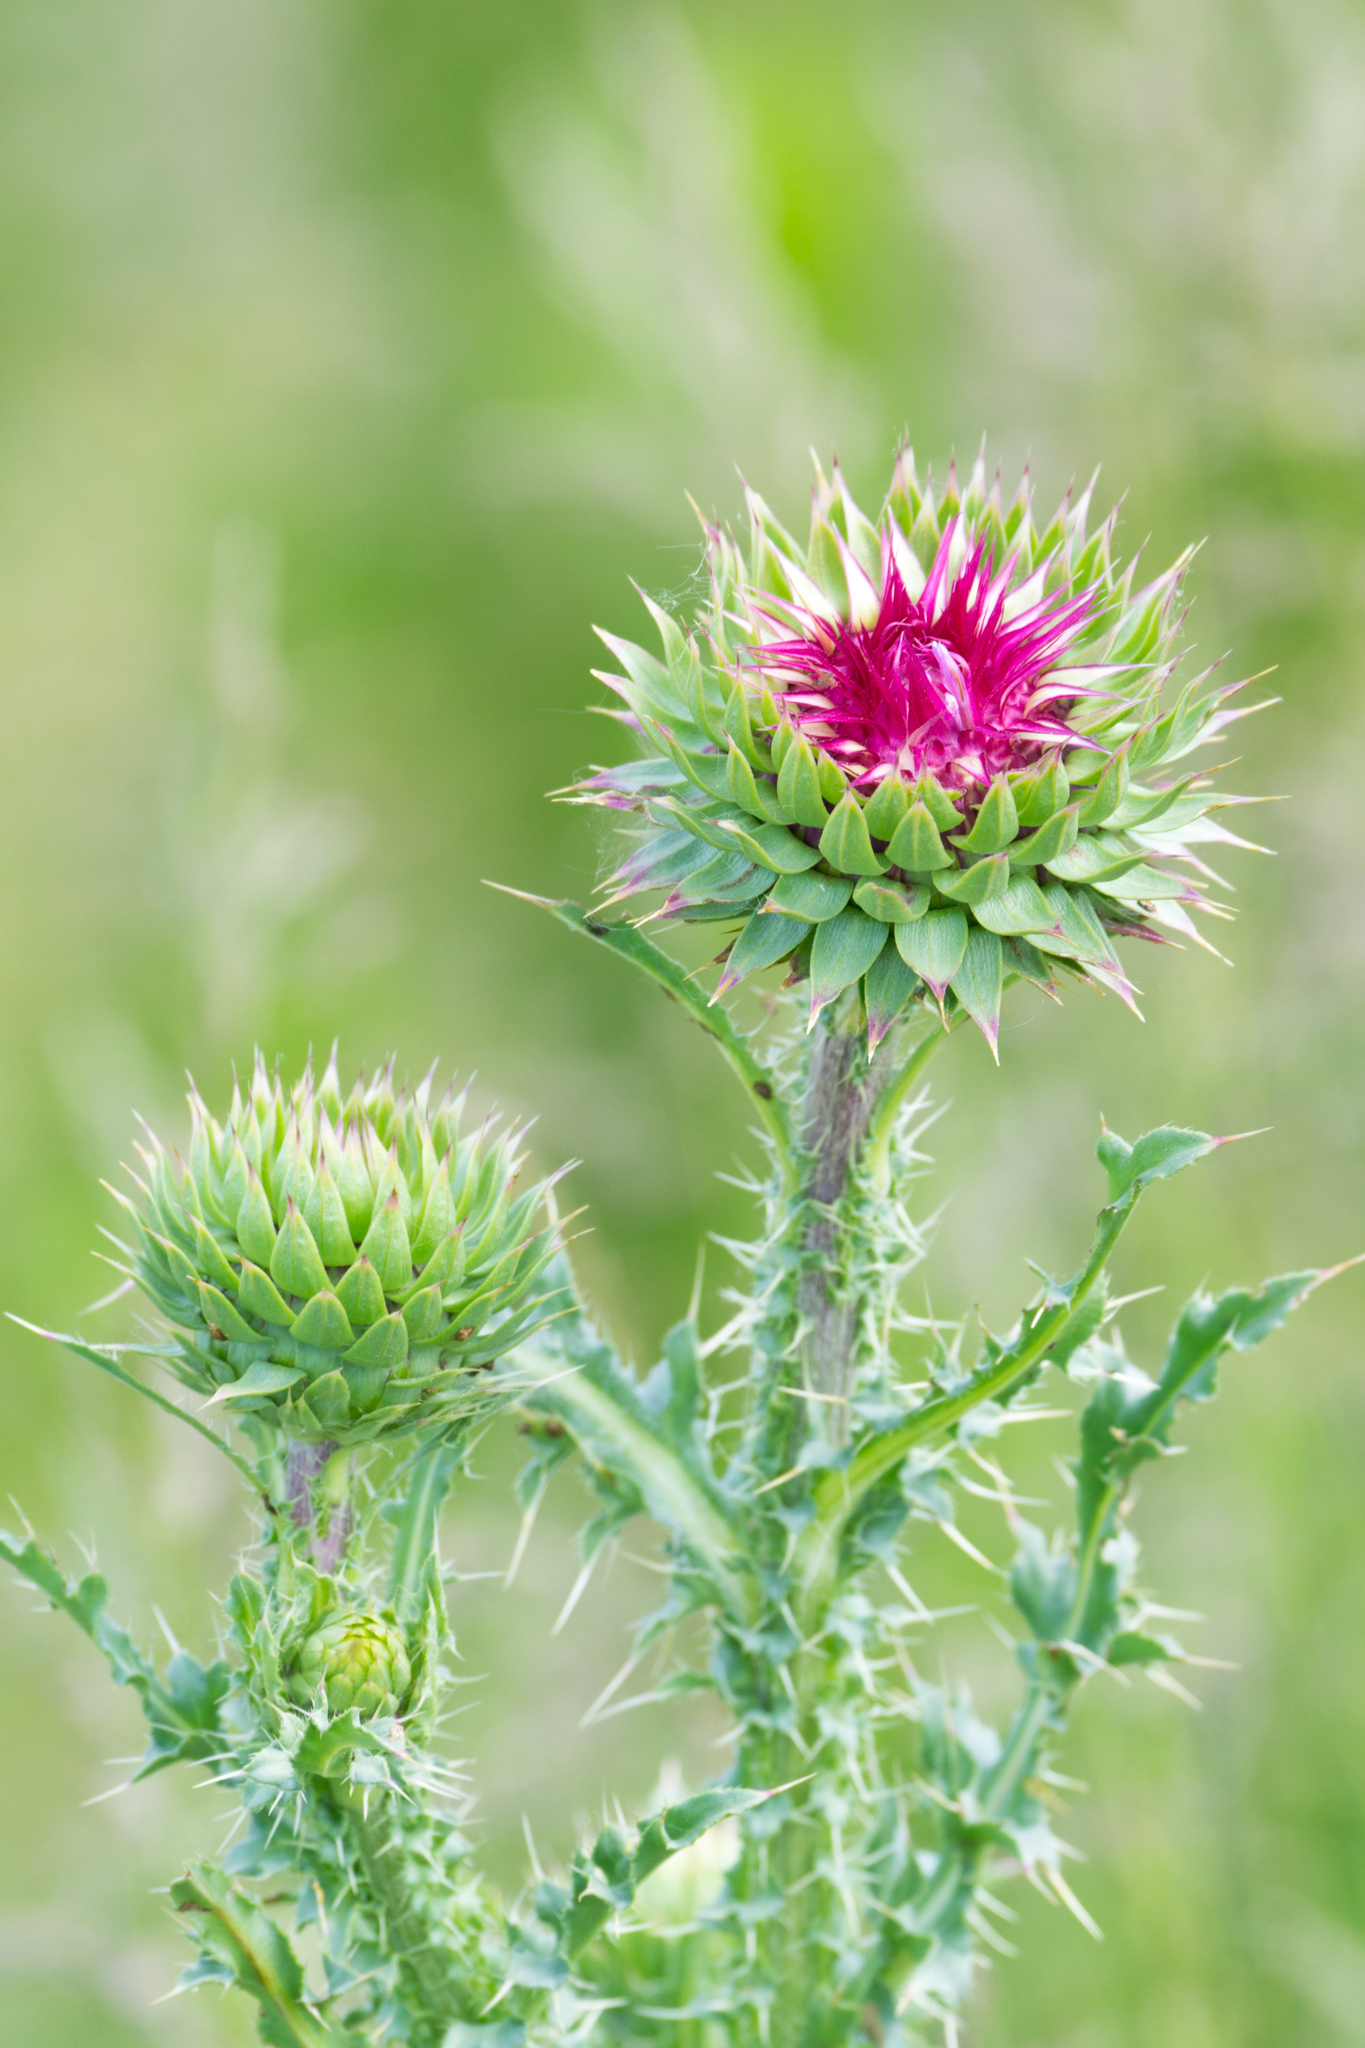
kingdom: Plantae
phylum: Tracheophyta
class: Magnoliopsida
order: Asterales
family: Asteraceae
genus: Carduus
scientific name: Carduus nutans
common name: Musk thistle
